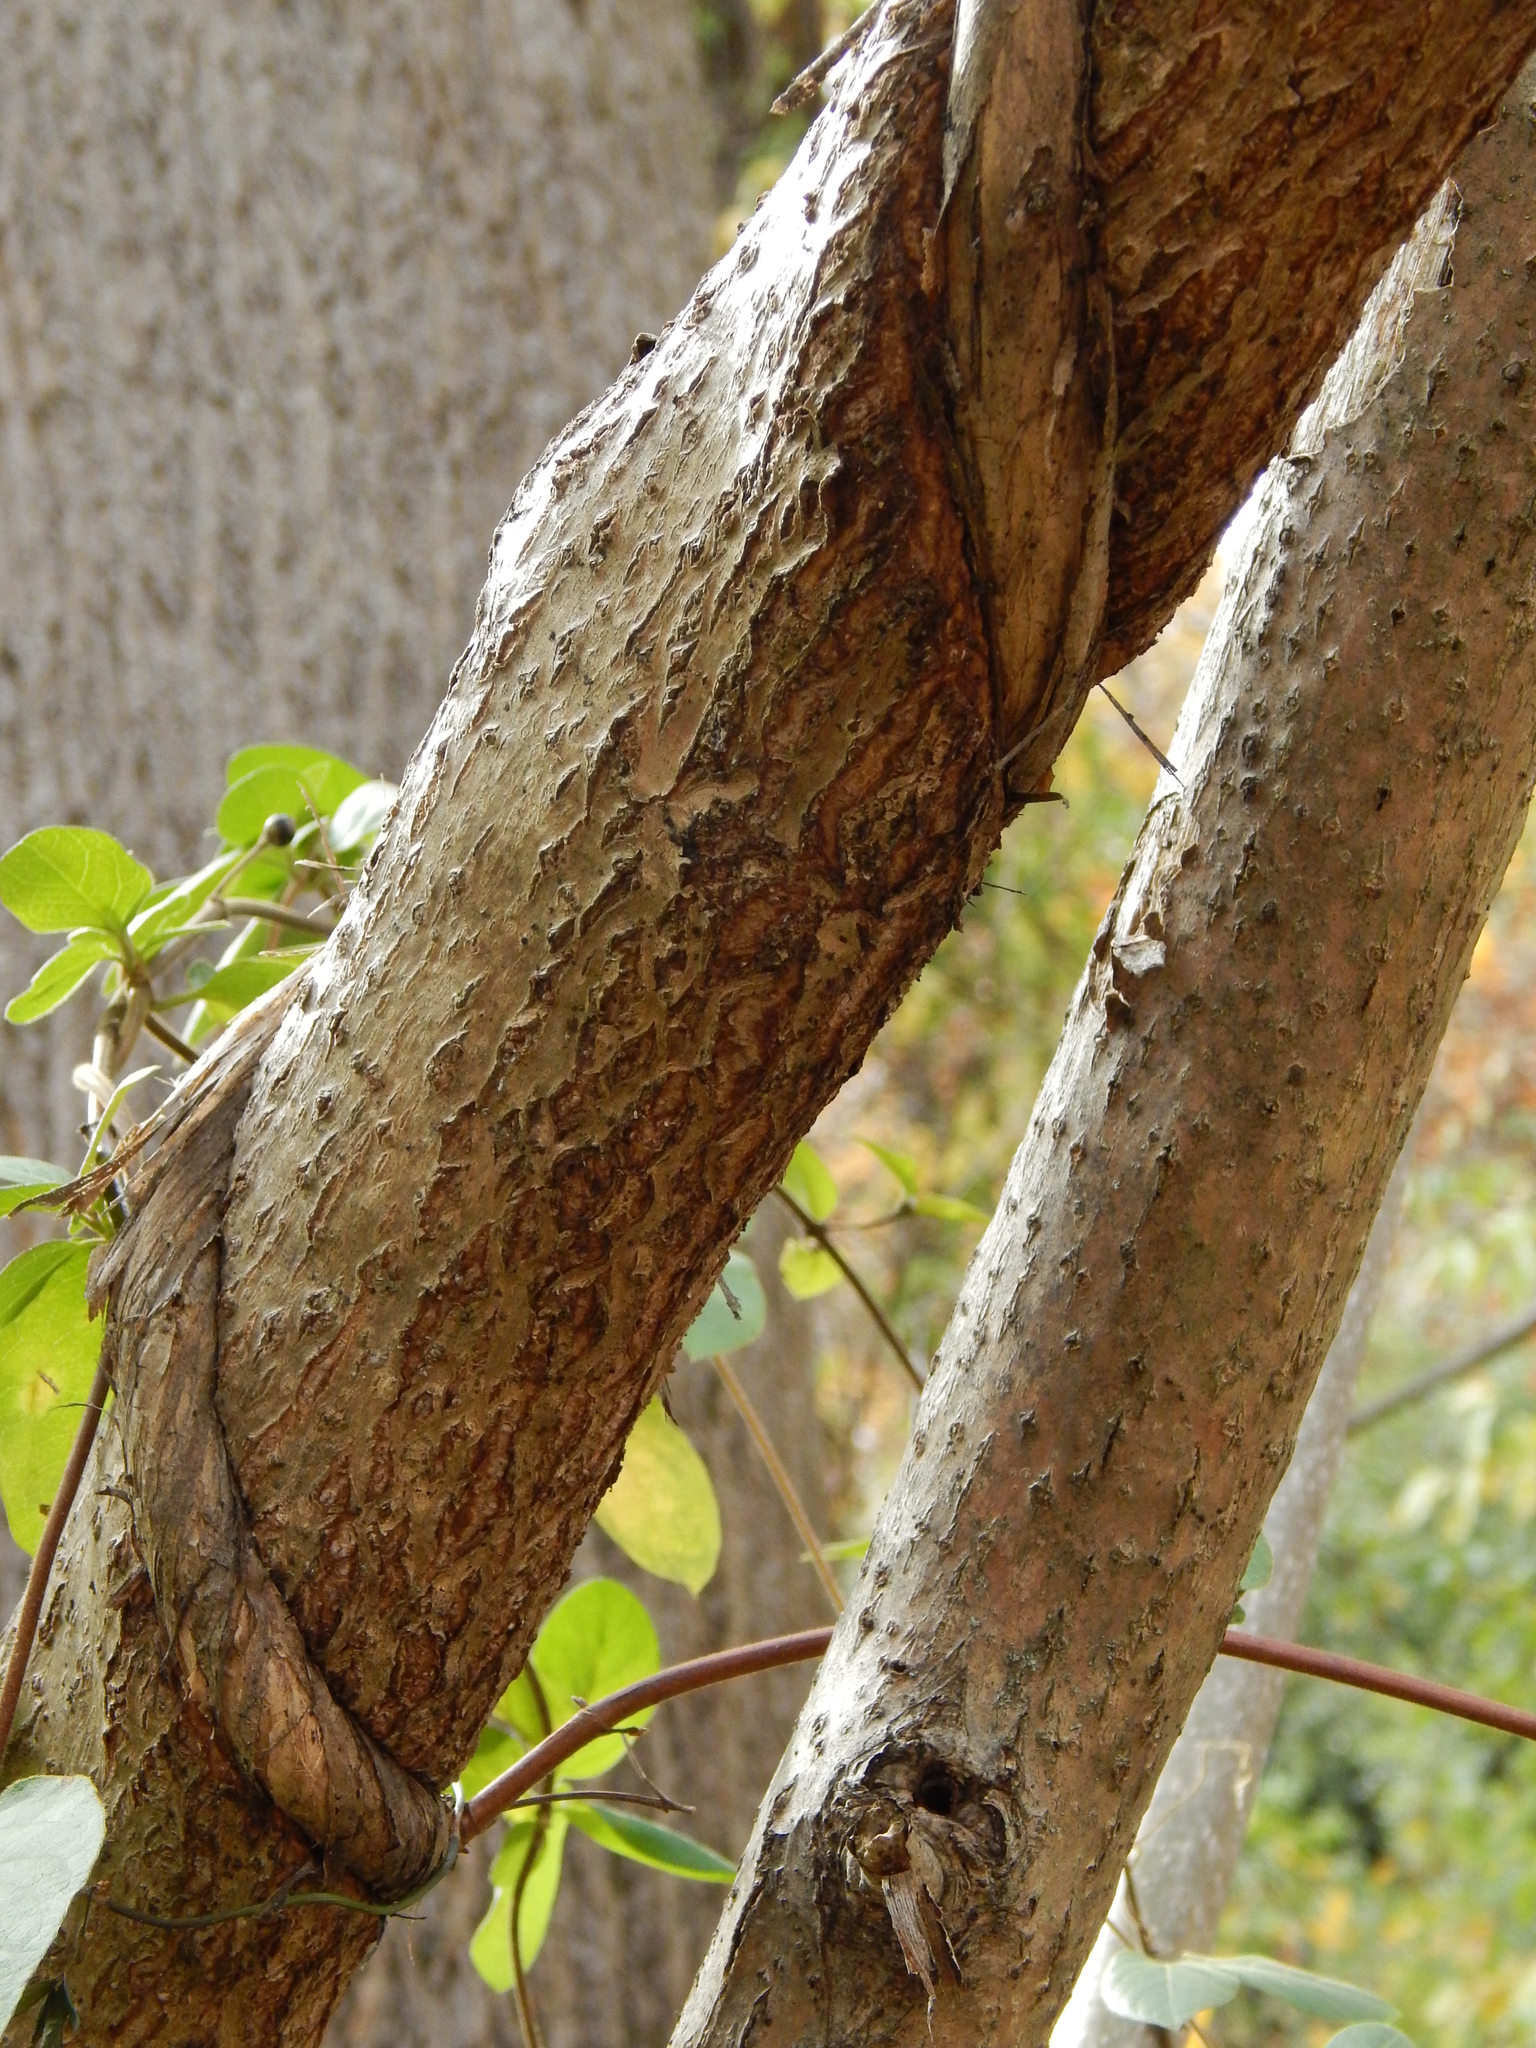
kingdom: Plantae
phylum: Tracheophyta
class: Magnoliopsida
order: Lamiales
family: Paulowniaceae
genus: Paulownia
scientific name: Paulownia tomentosa
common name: Foxglove-tree
